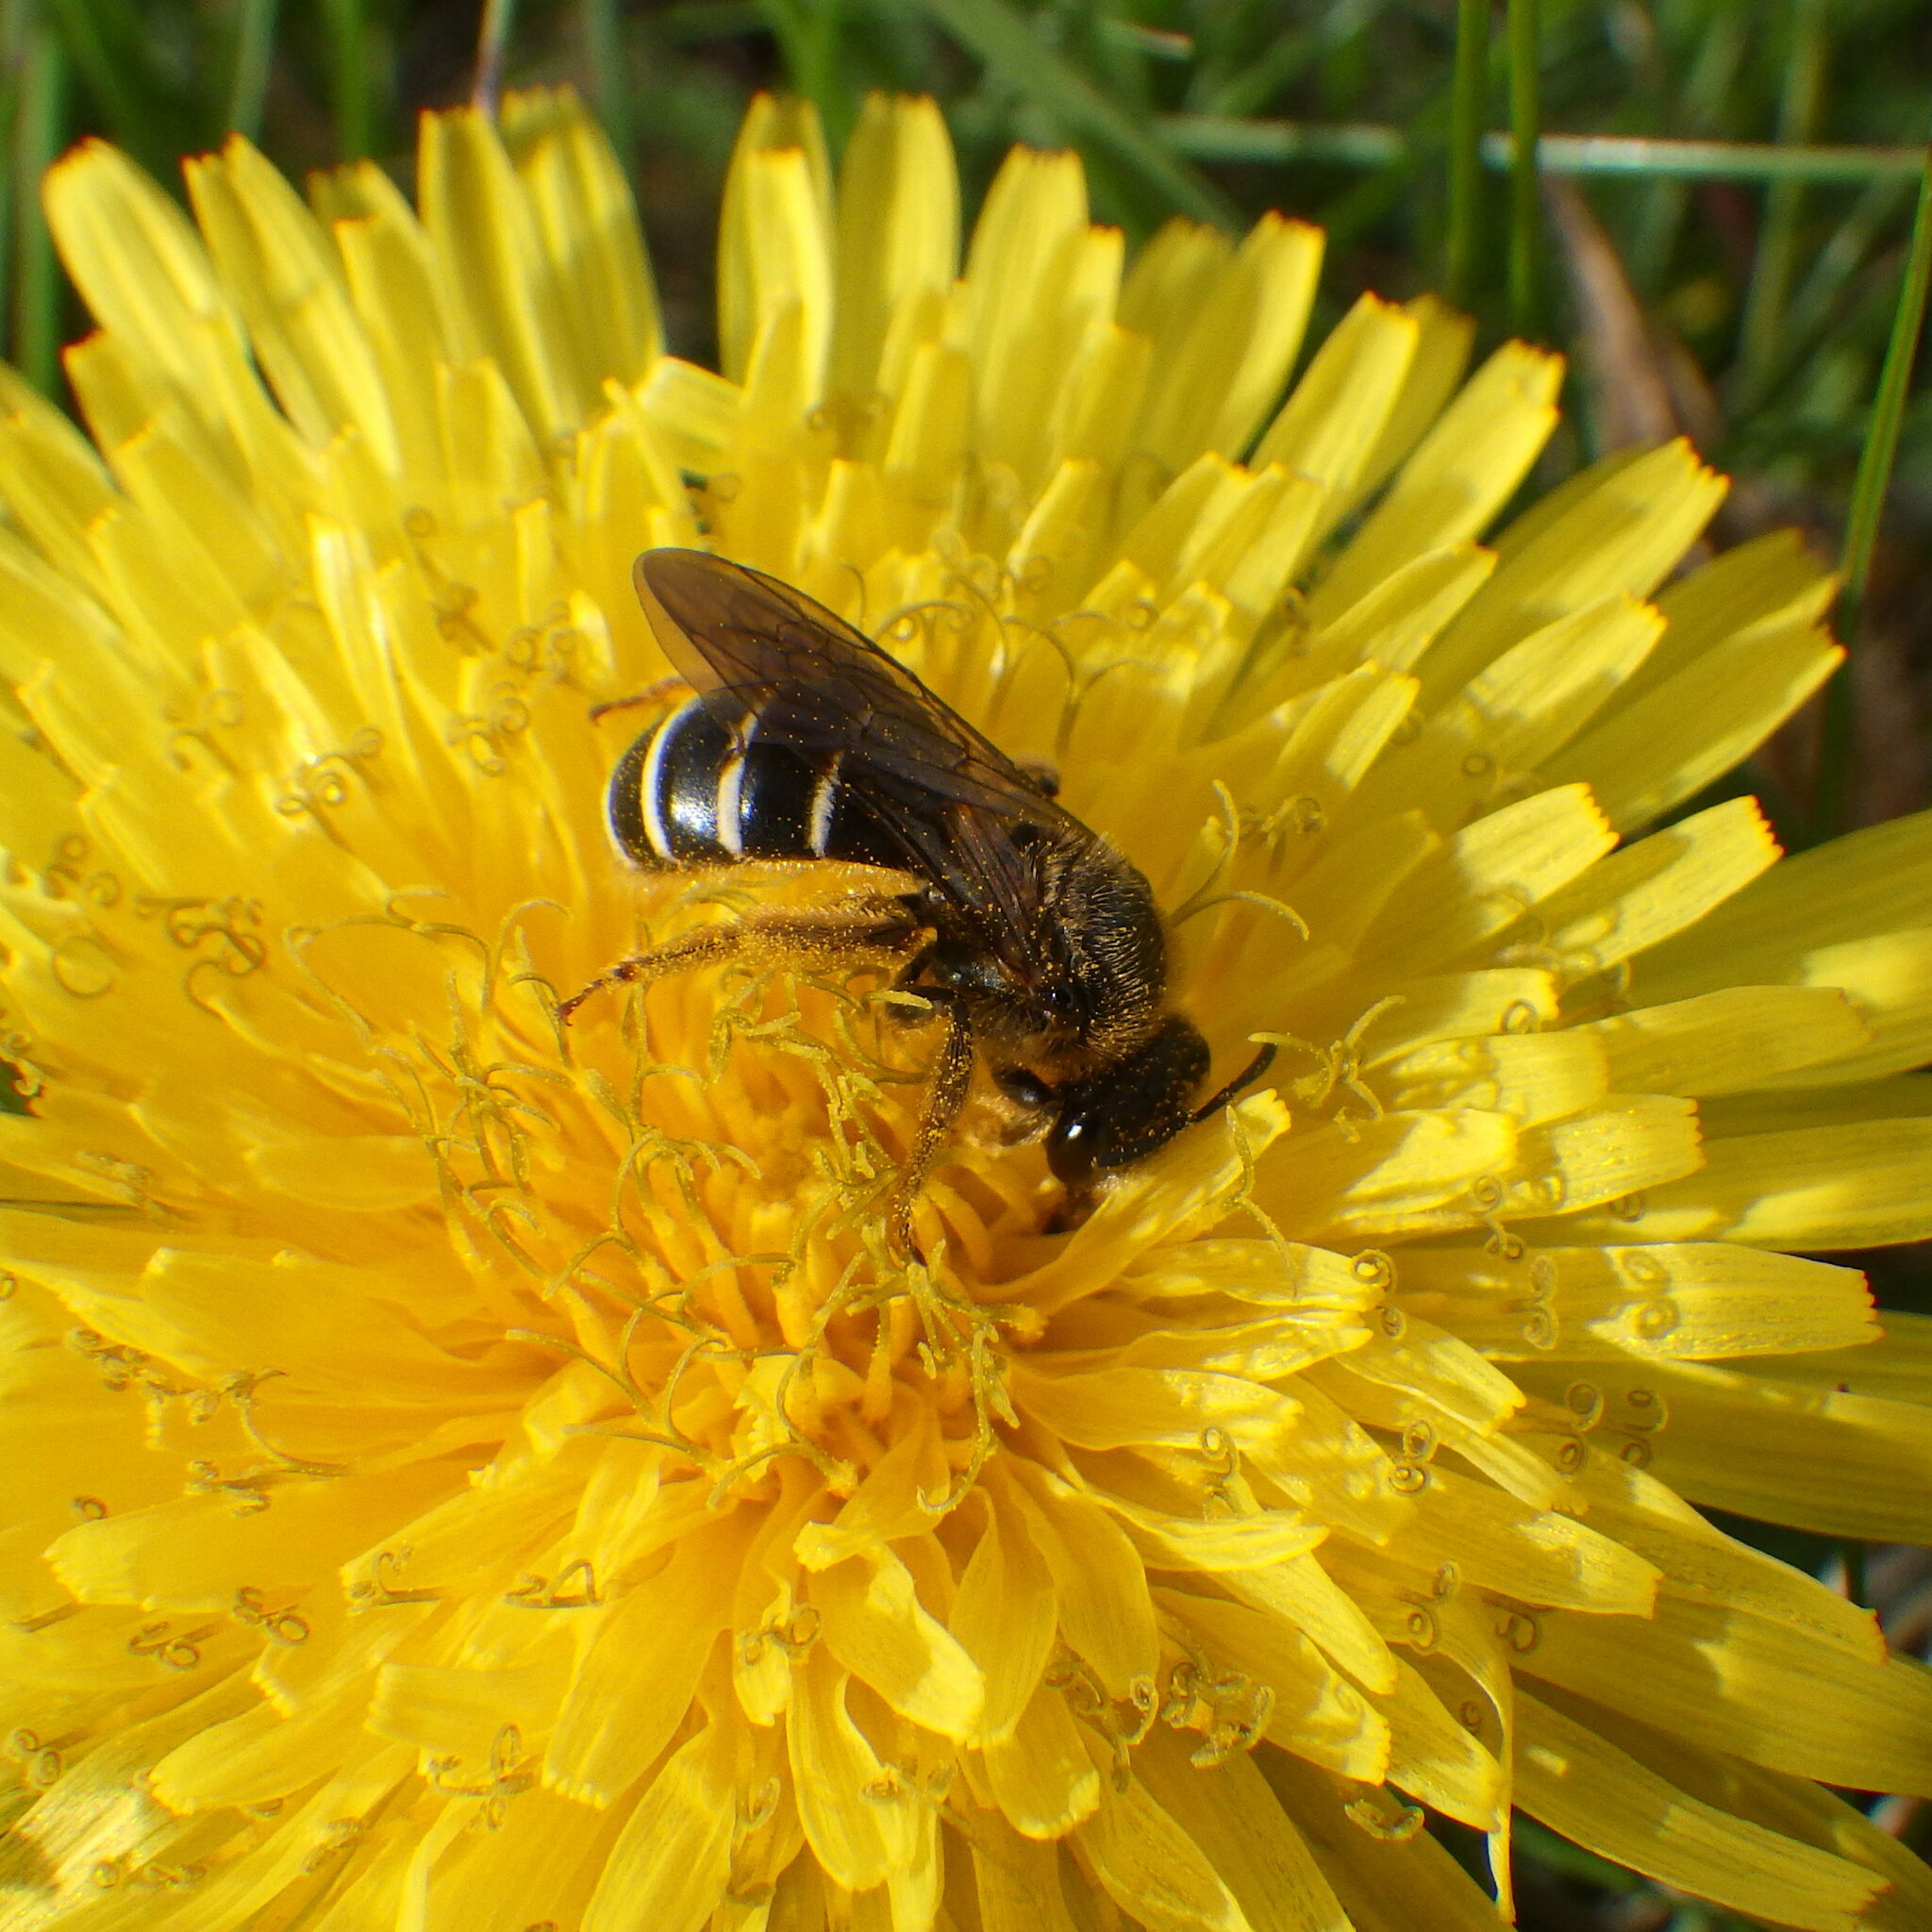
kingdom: Animalia
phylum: Arthropoda
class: Insecta
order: Hymenoptera
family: Halictidae
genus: Halictus
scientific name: Halictus rubicundus
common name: Orange-legged furrow bee
